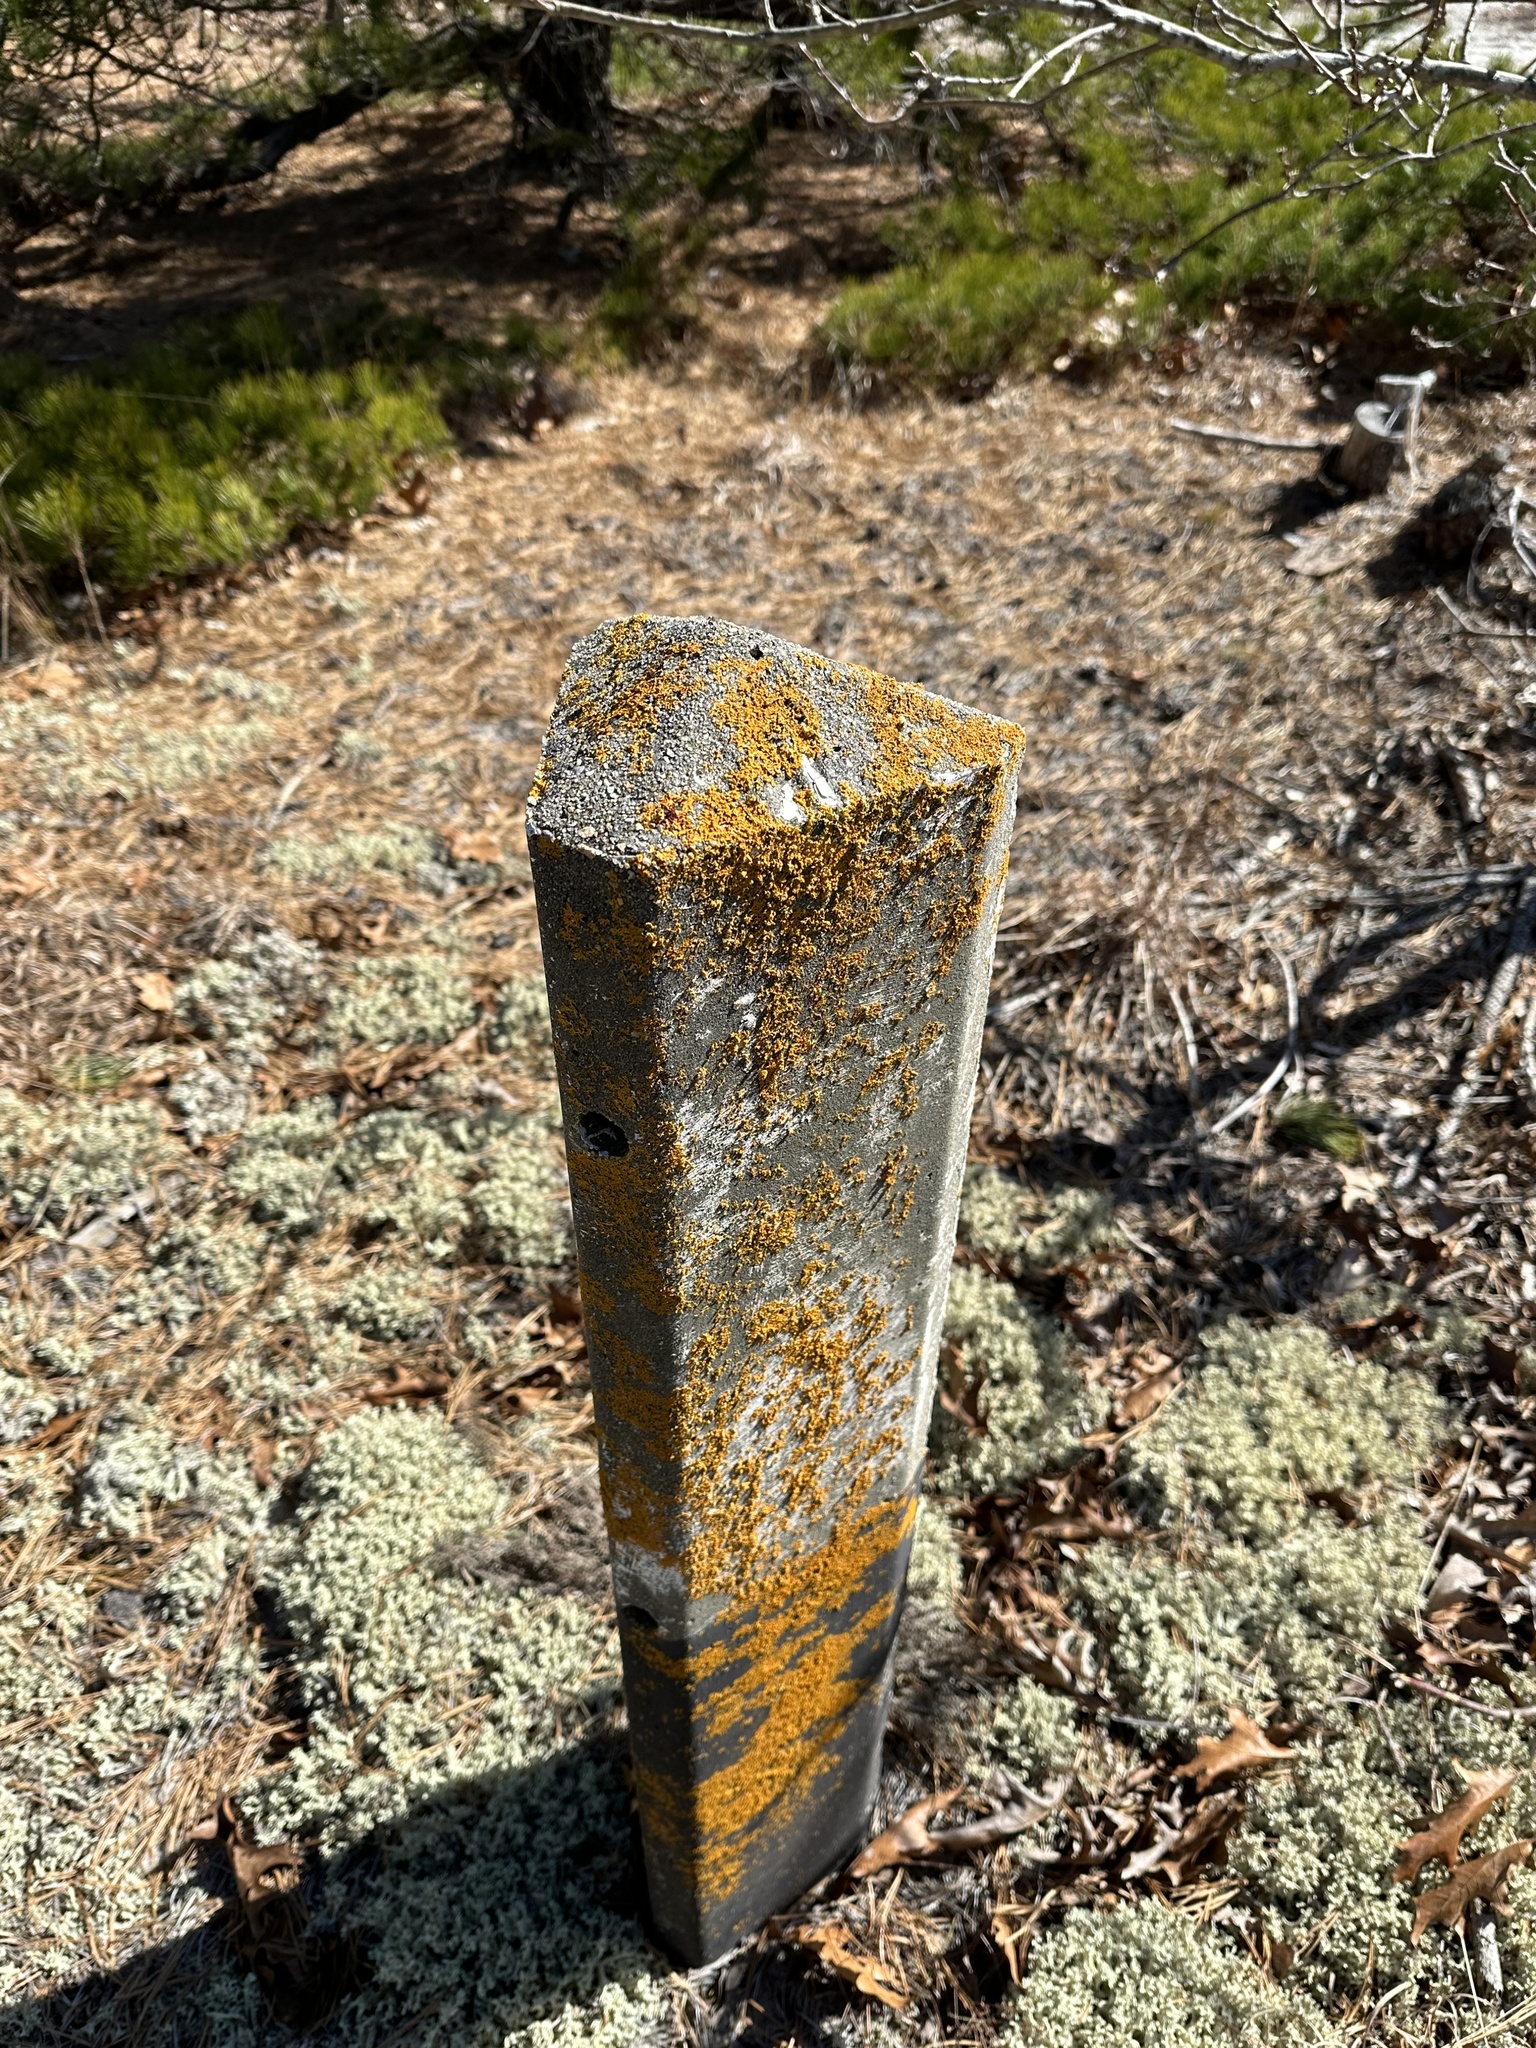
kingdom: Fungi
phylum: Ascomycota
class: Lecanoromycetes
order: Teloschistales
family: Teloschistaceae
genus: Xanthoria
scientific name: Xanthoria parietina
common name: Common orange lichen
